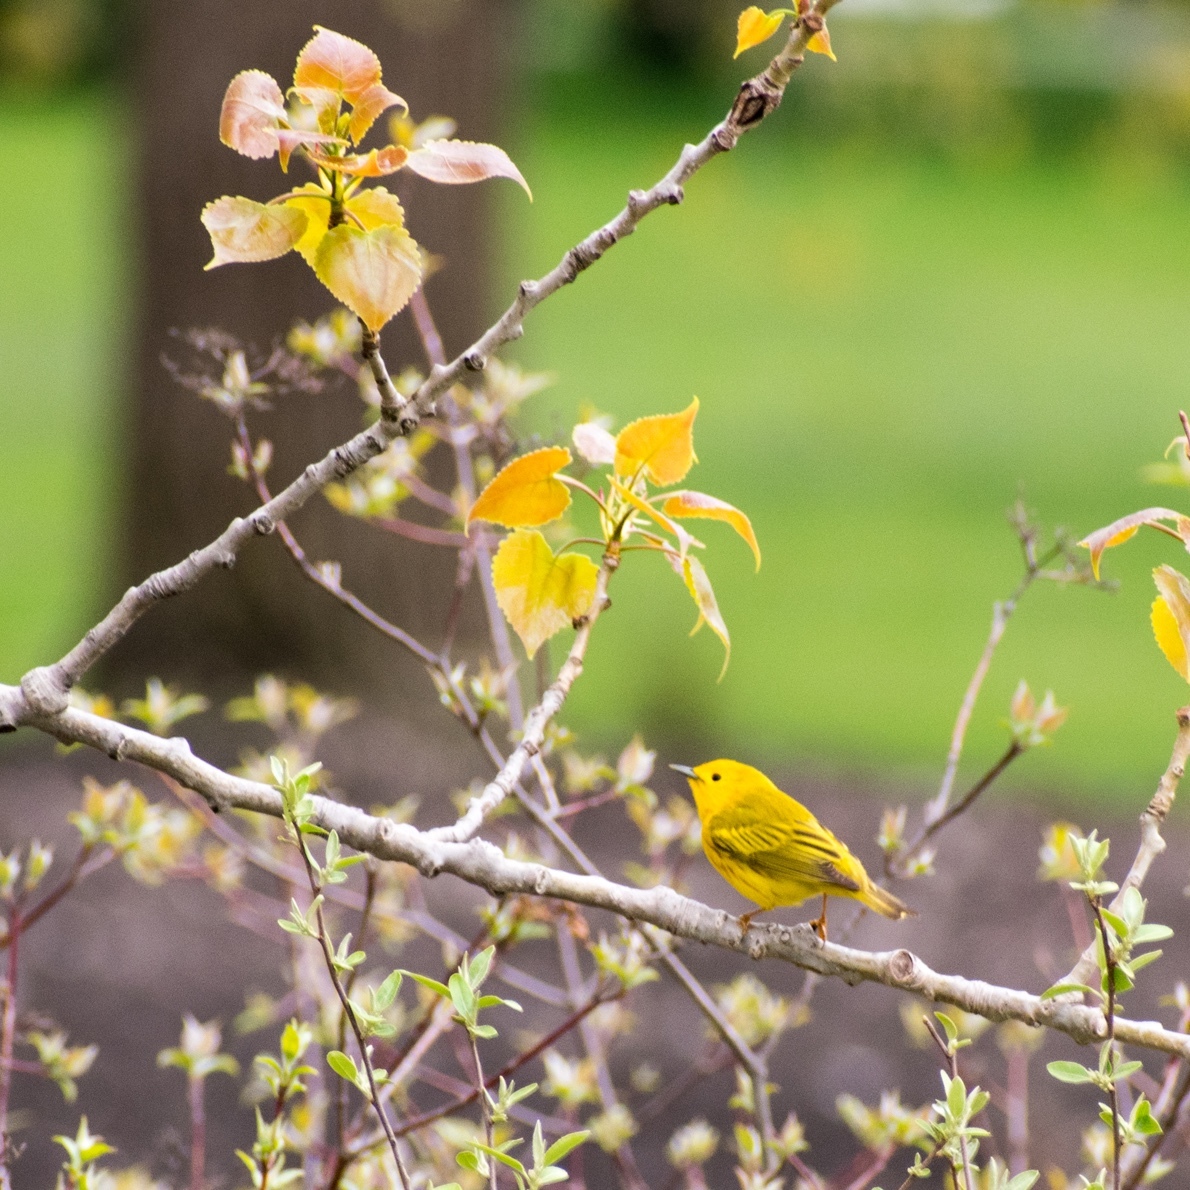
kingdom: Animalia
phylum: Chordata
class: Aves
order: Passeriformes
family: Parulidae
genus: Setophaga
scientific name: Setophaga petechia
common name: Yellow warbler
